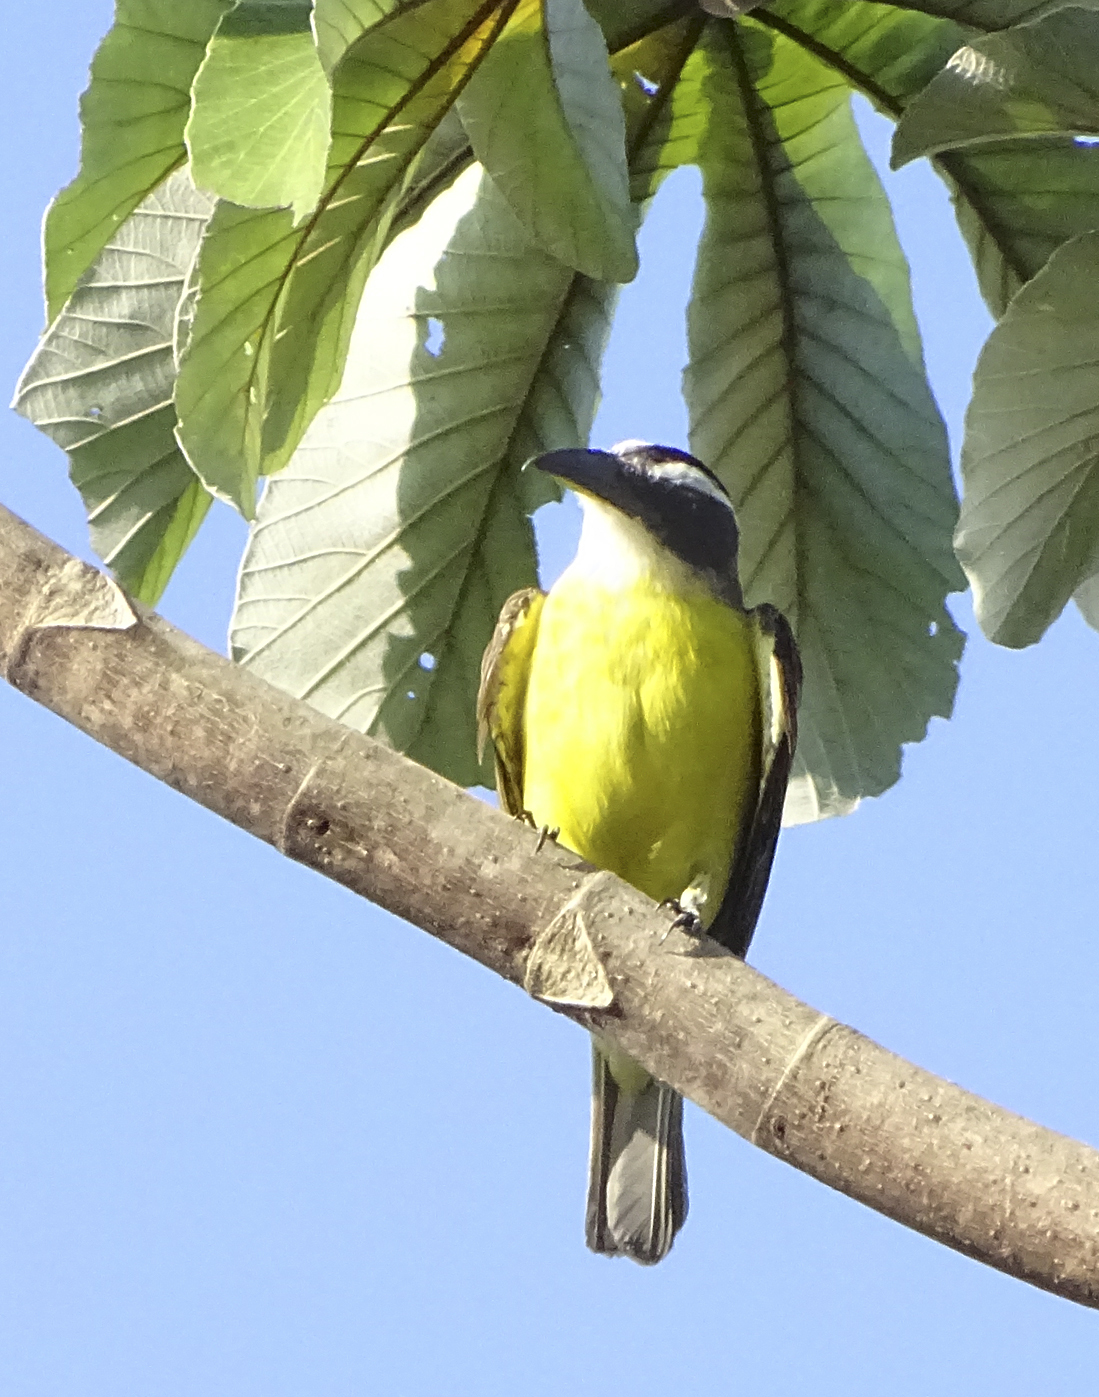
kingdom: Animalia
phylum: Chordata
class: Aves
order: Passeriformes
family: Tyrannidae
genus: Megarynchus
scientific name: Megarynchus pitangua
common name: Boat-billed flycatcher
